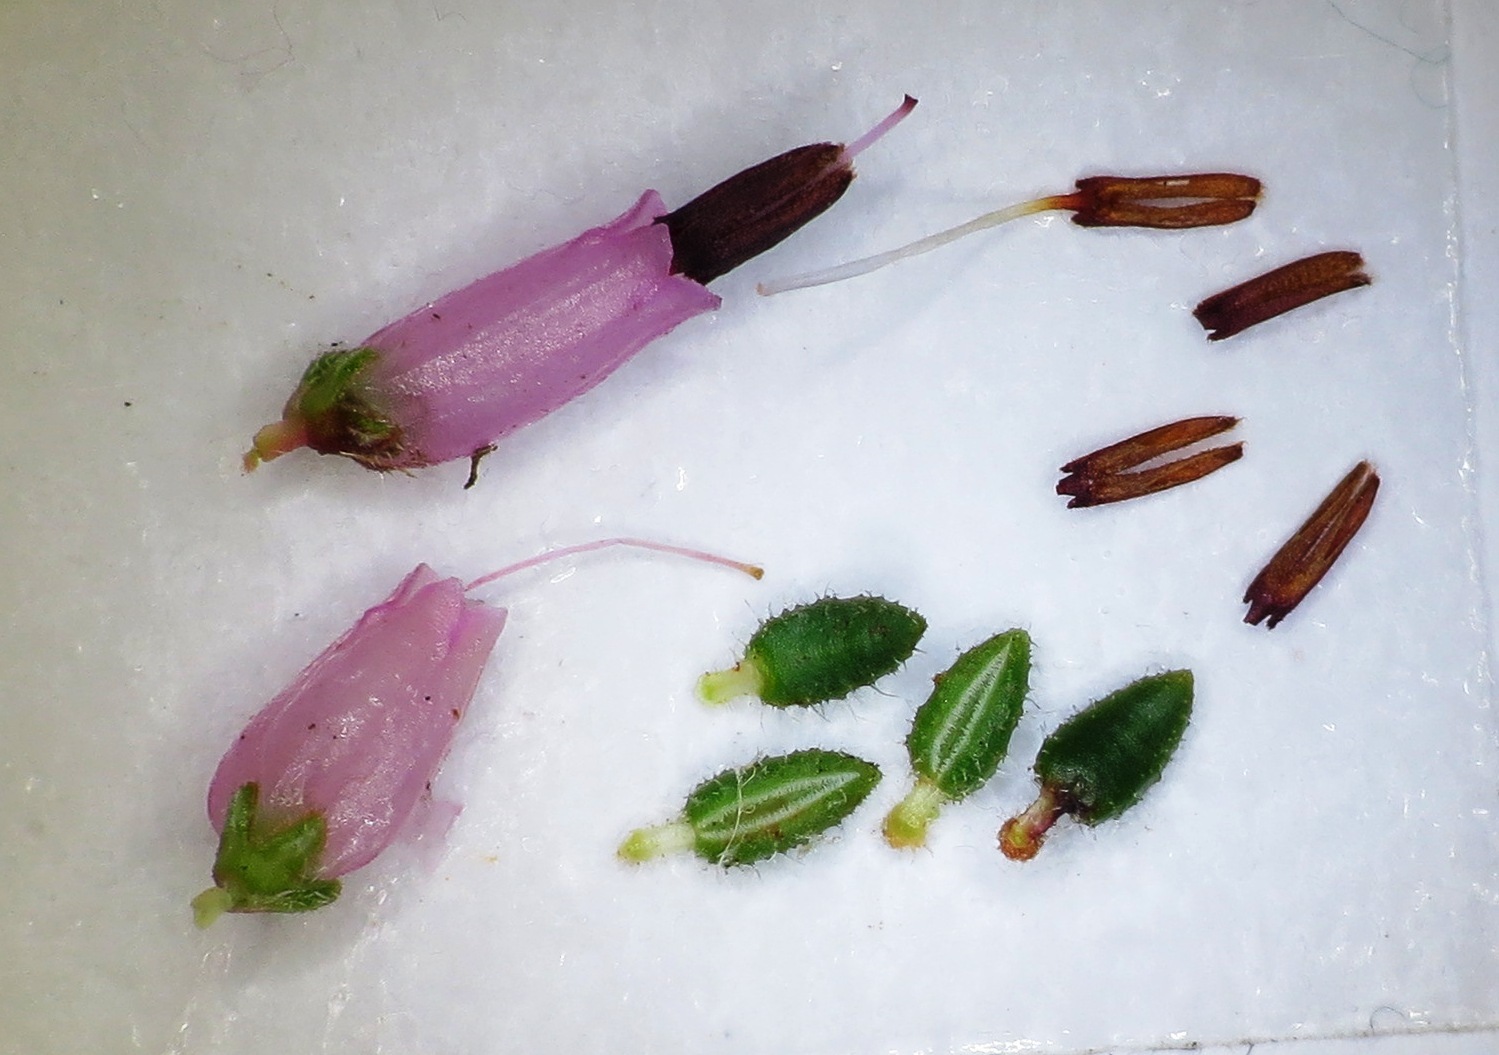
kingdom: Plantae
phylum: Tracheophyta
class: Magnoliopsida
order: Ericales
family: Ericaceae
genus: Erica
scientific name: Erica interrupta
